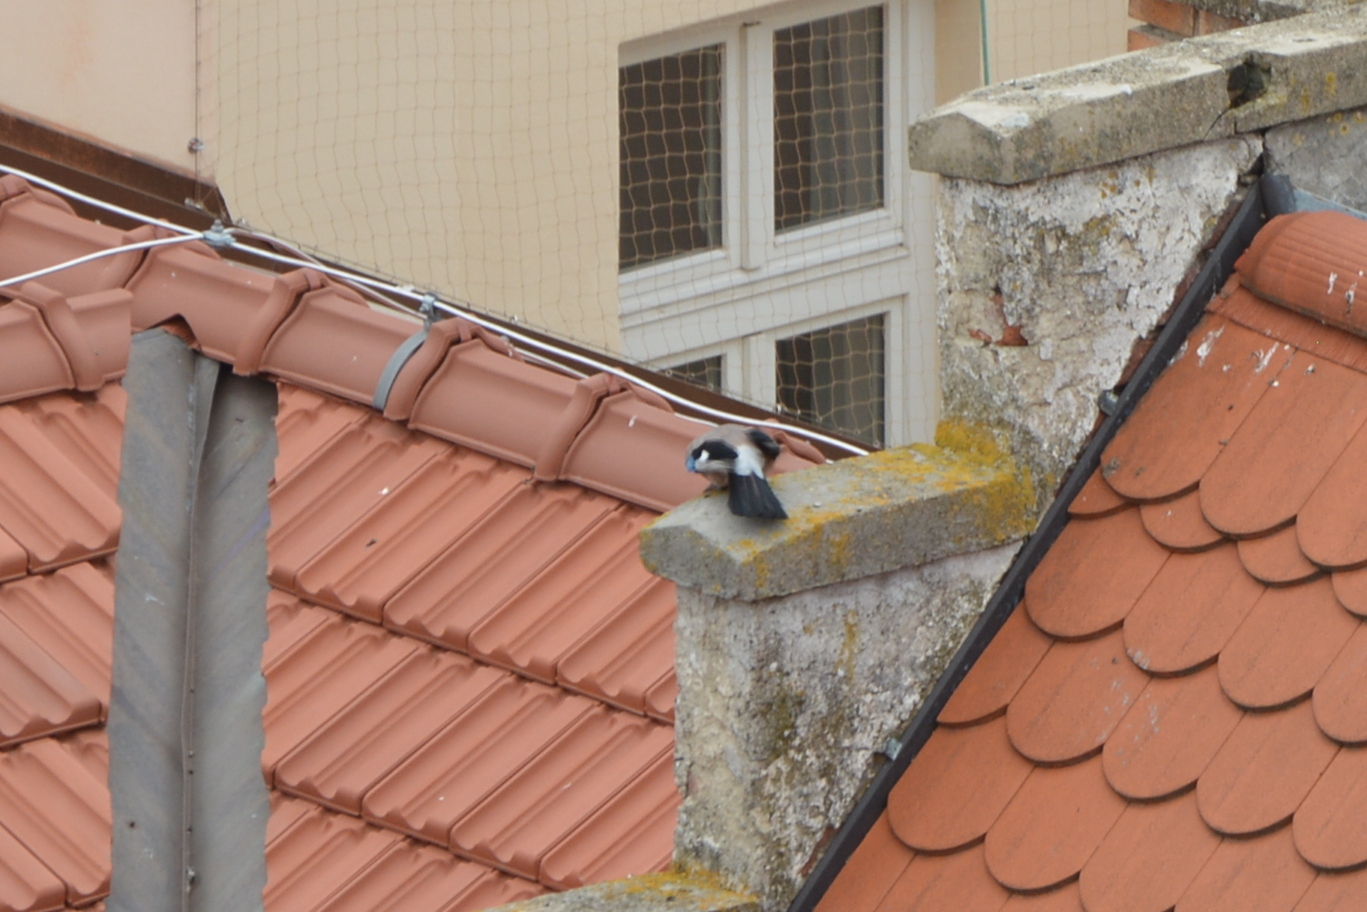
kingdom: Animalia
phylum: Chordata
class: Aves
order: Passeriformes
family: Corvidae
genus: Garrulus
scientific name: Garrulus glandarius
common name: Eurasian jay
